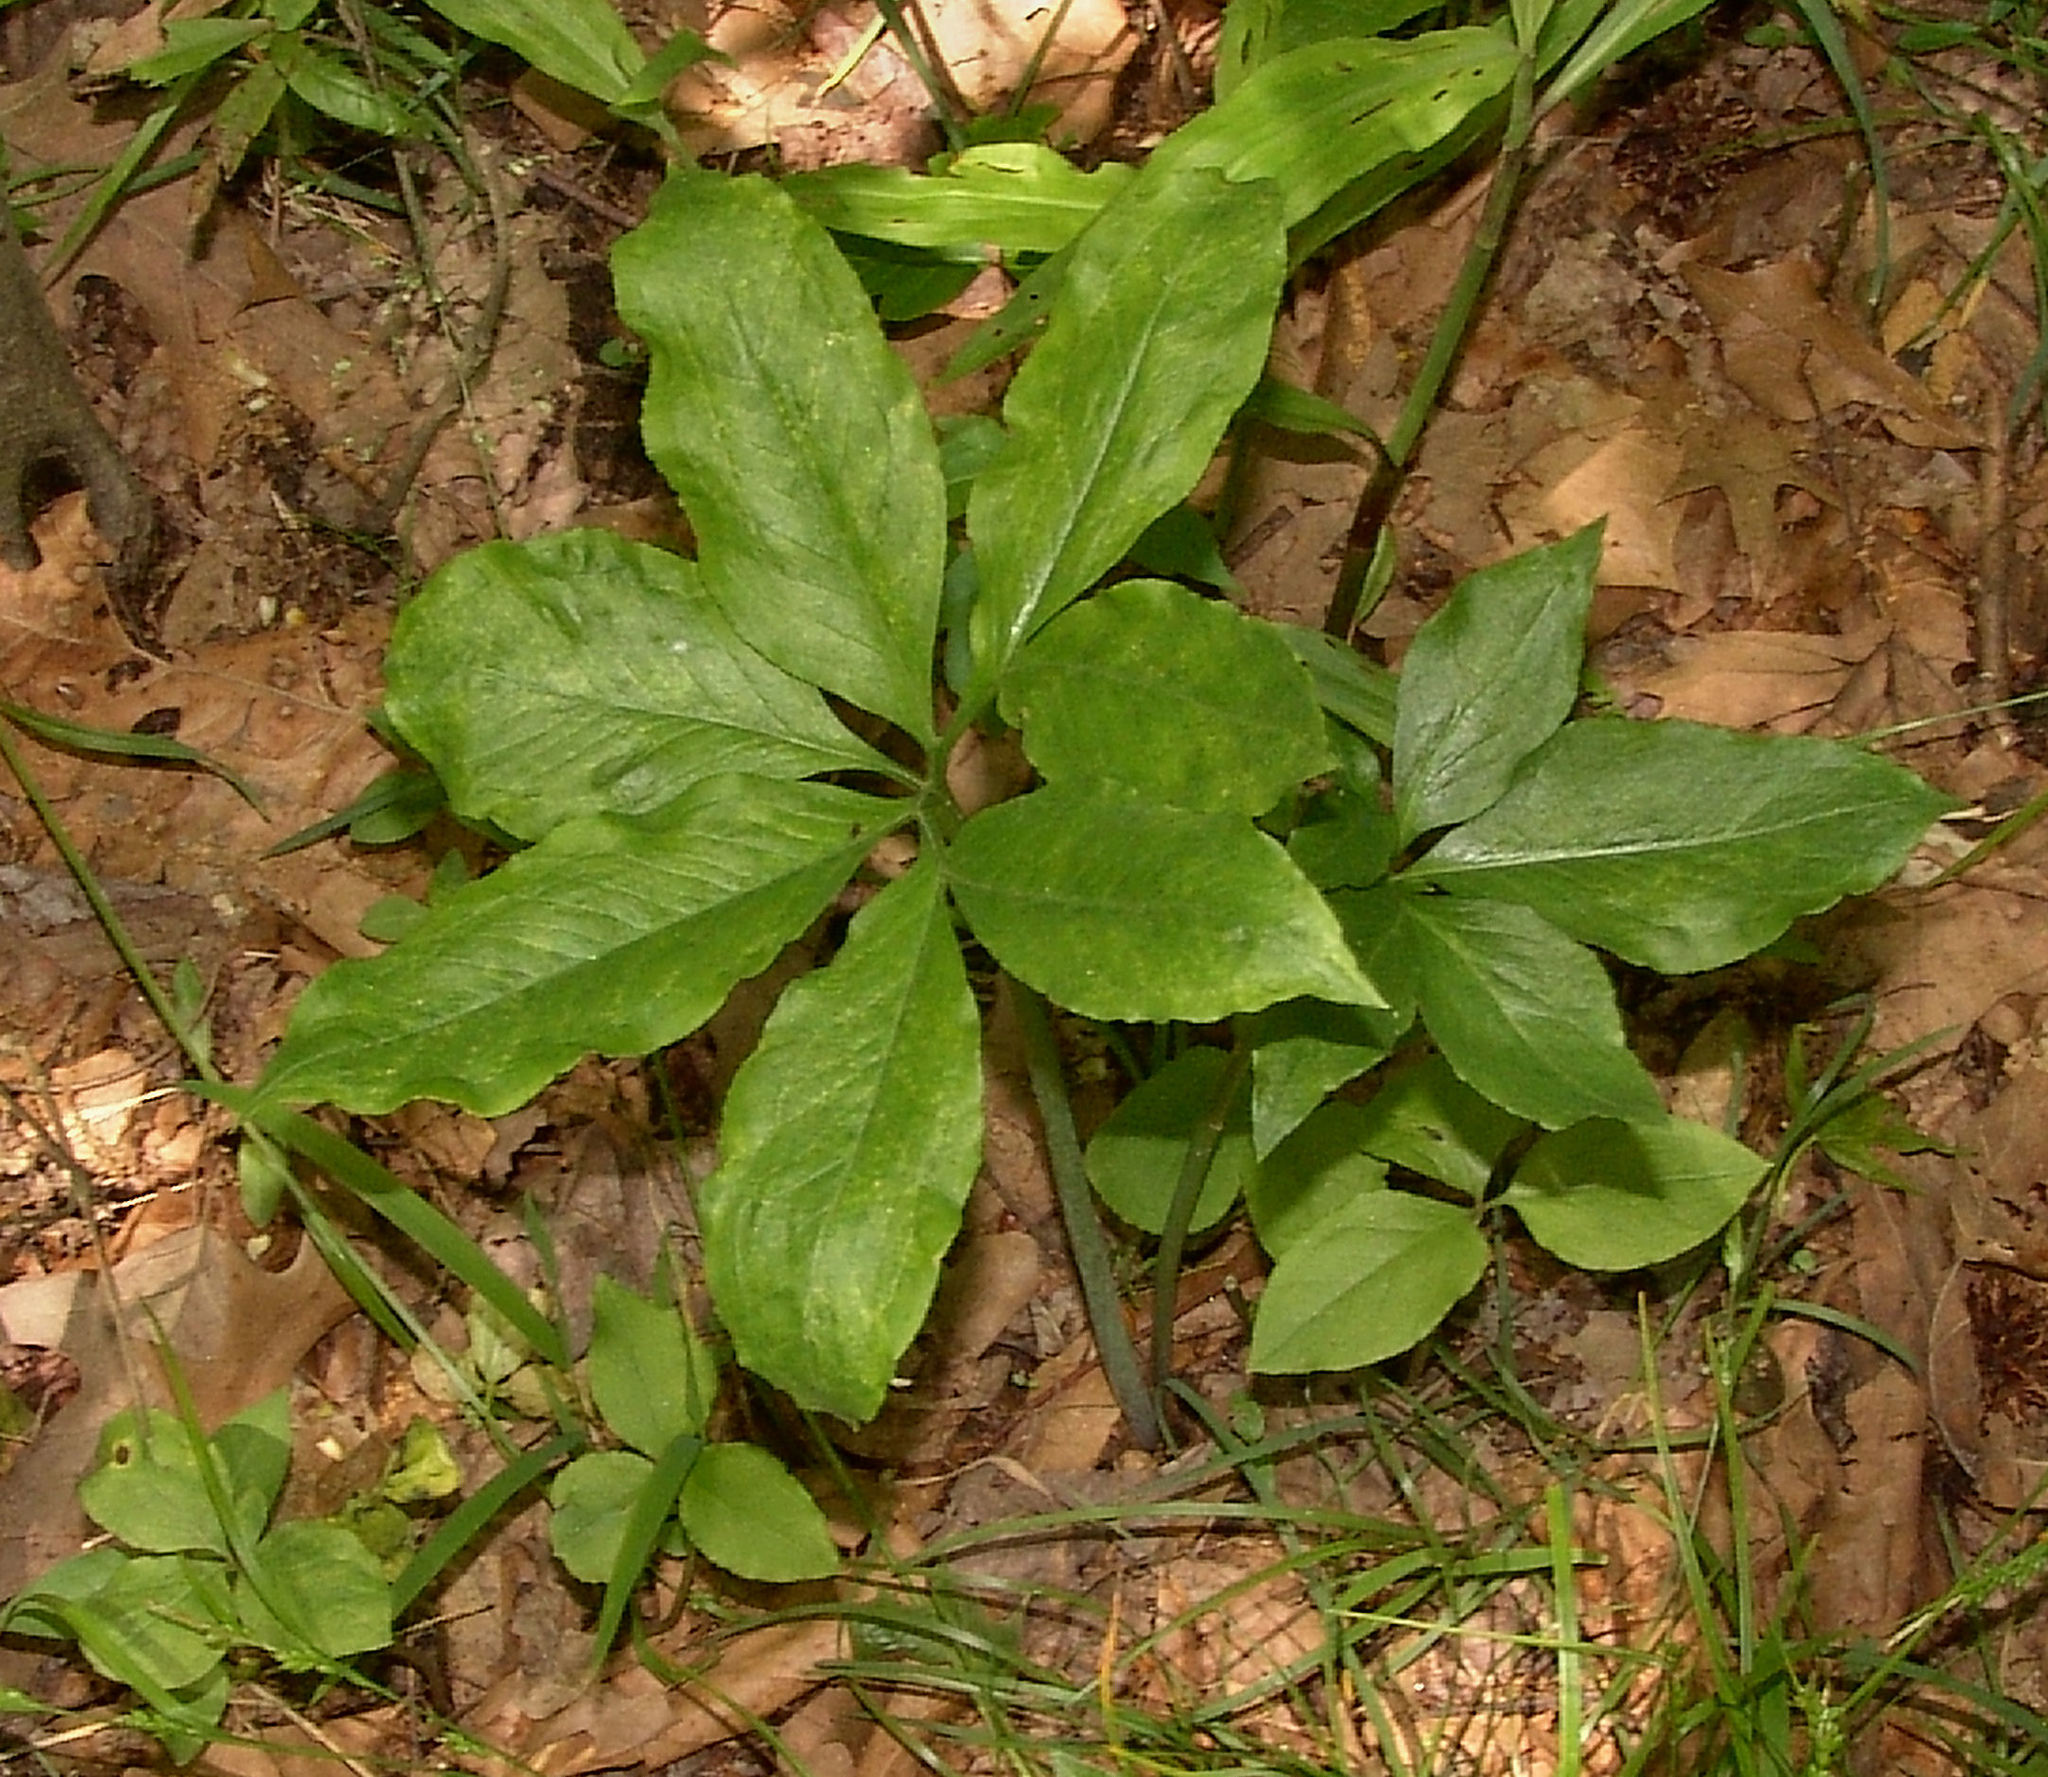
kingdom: Plantae
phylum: Tracheophyta
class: Liliopsida
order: Alismatales
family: Araceae
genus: Arisaema
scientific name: Arisaema dracontium
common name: Dragon-arum
